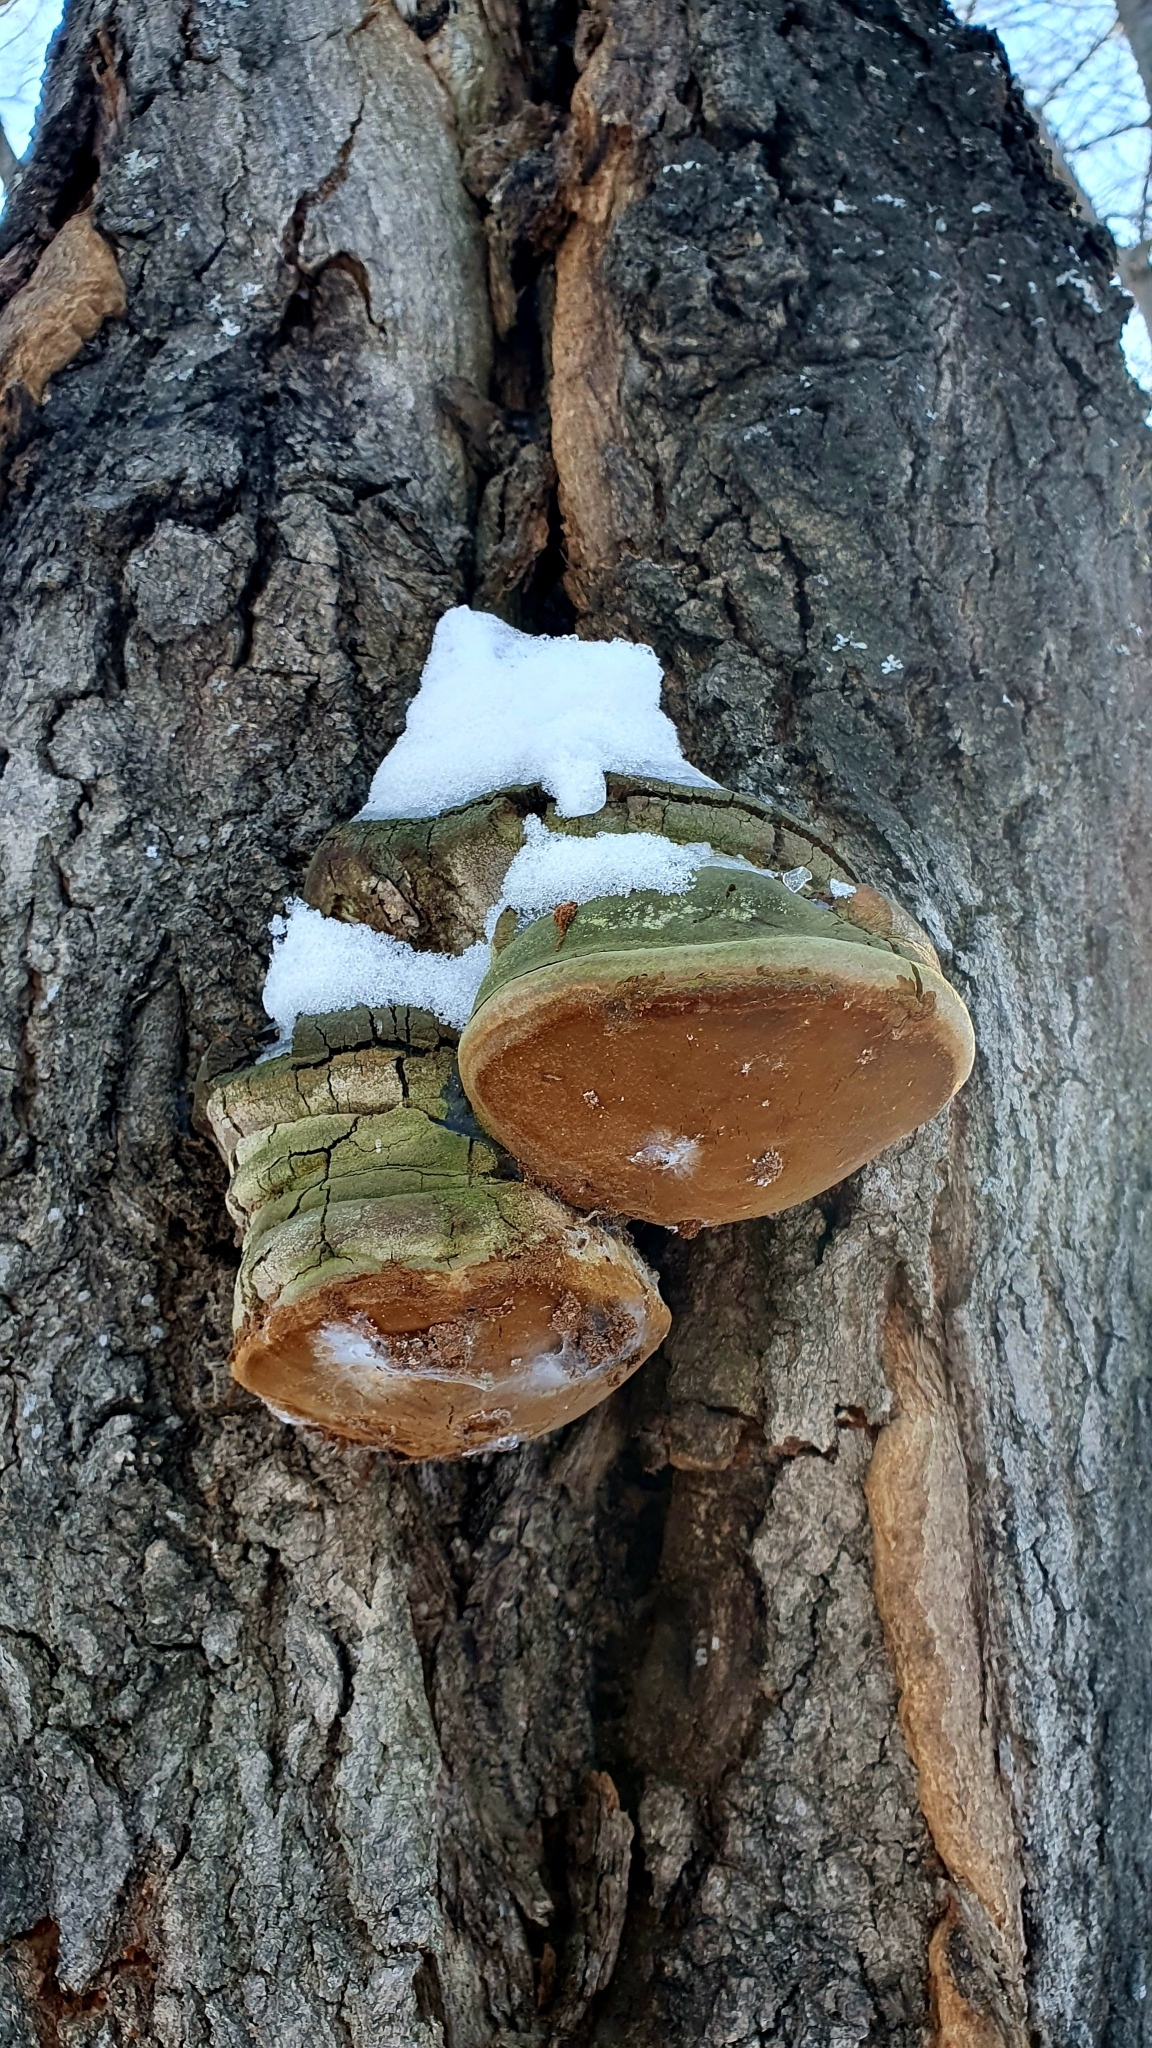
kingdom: Fungi
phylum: Basidiomycota
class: Agaricomycetes
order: Hymenochaetales
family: Hymenochaetaceae
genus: Fomitiporia
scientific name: Fomitiporia robusta
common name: Robust bracket
